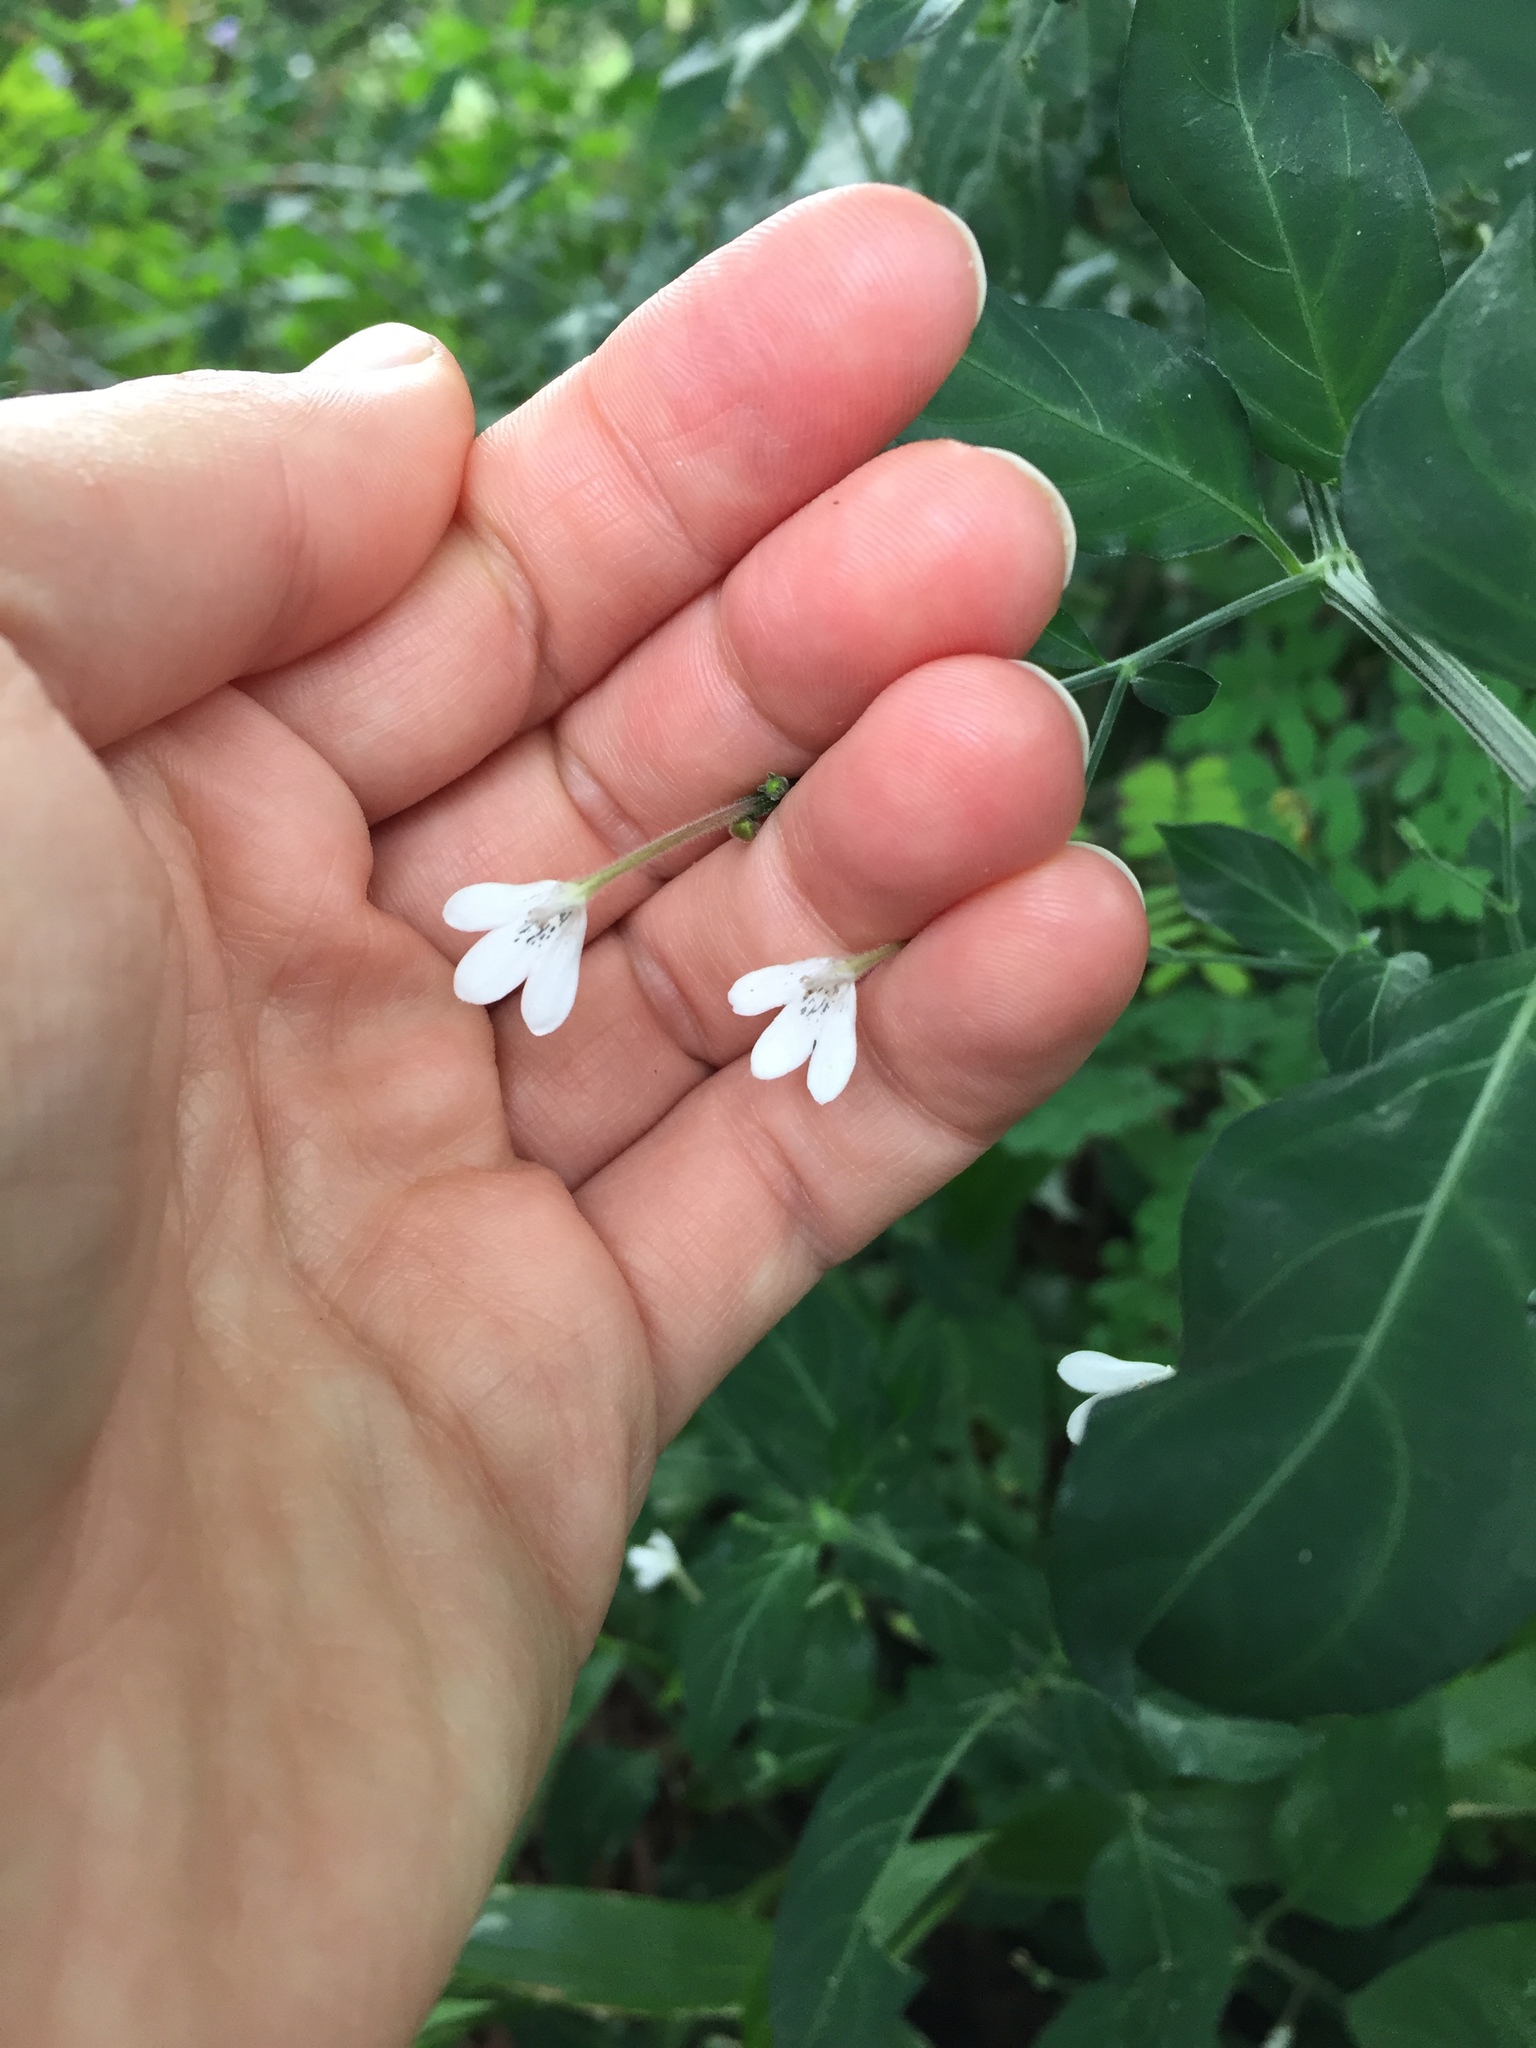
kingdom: Plantae
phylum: Tracheophyta
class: Magnoliopsida
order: Lamiales
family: Acanthaceae
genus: Rhinacanthus
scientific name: Rhinacanthus latilabiatus
